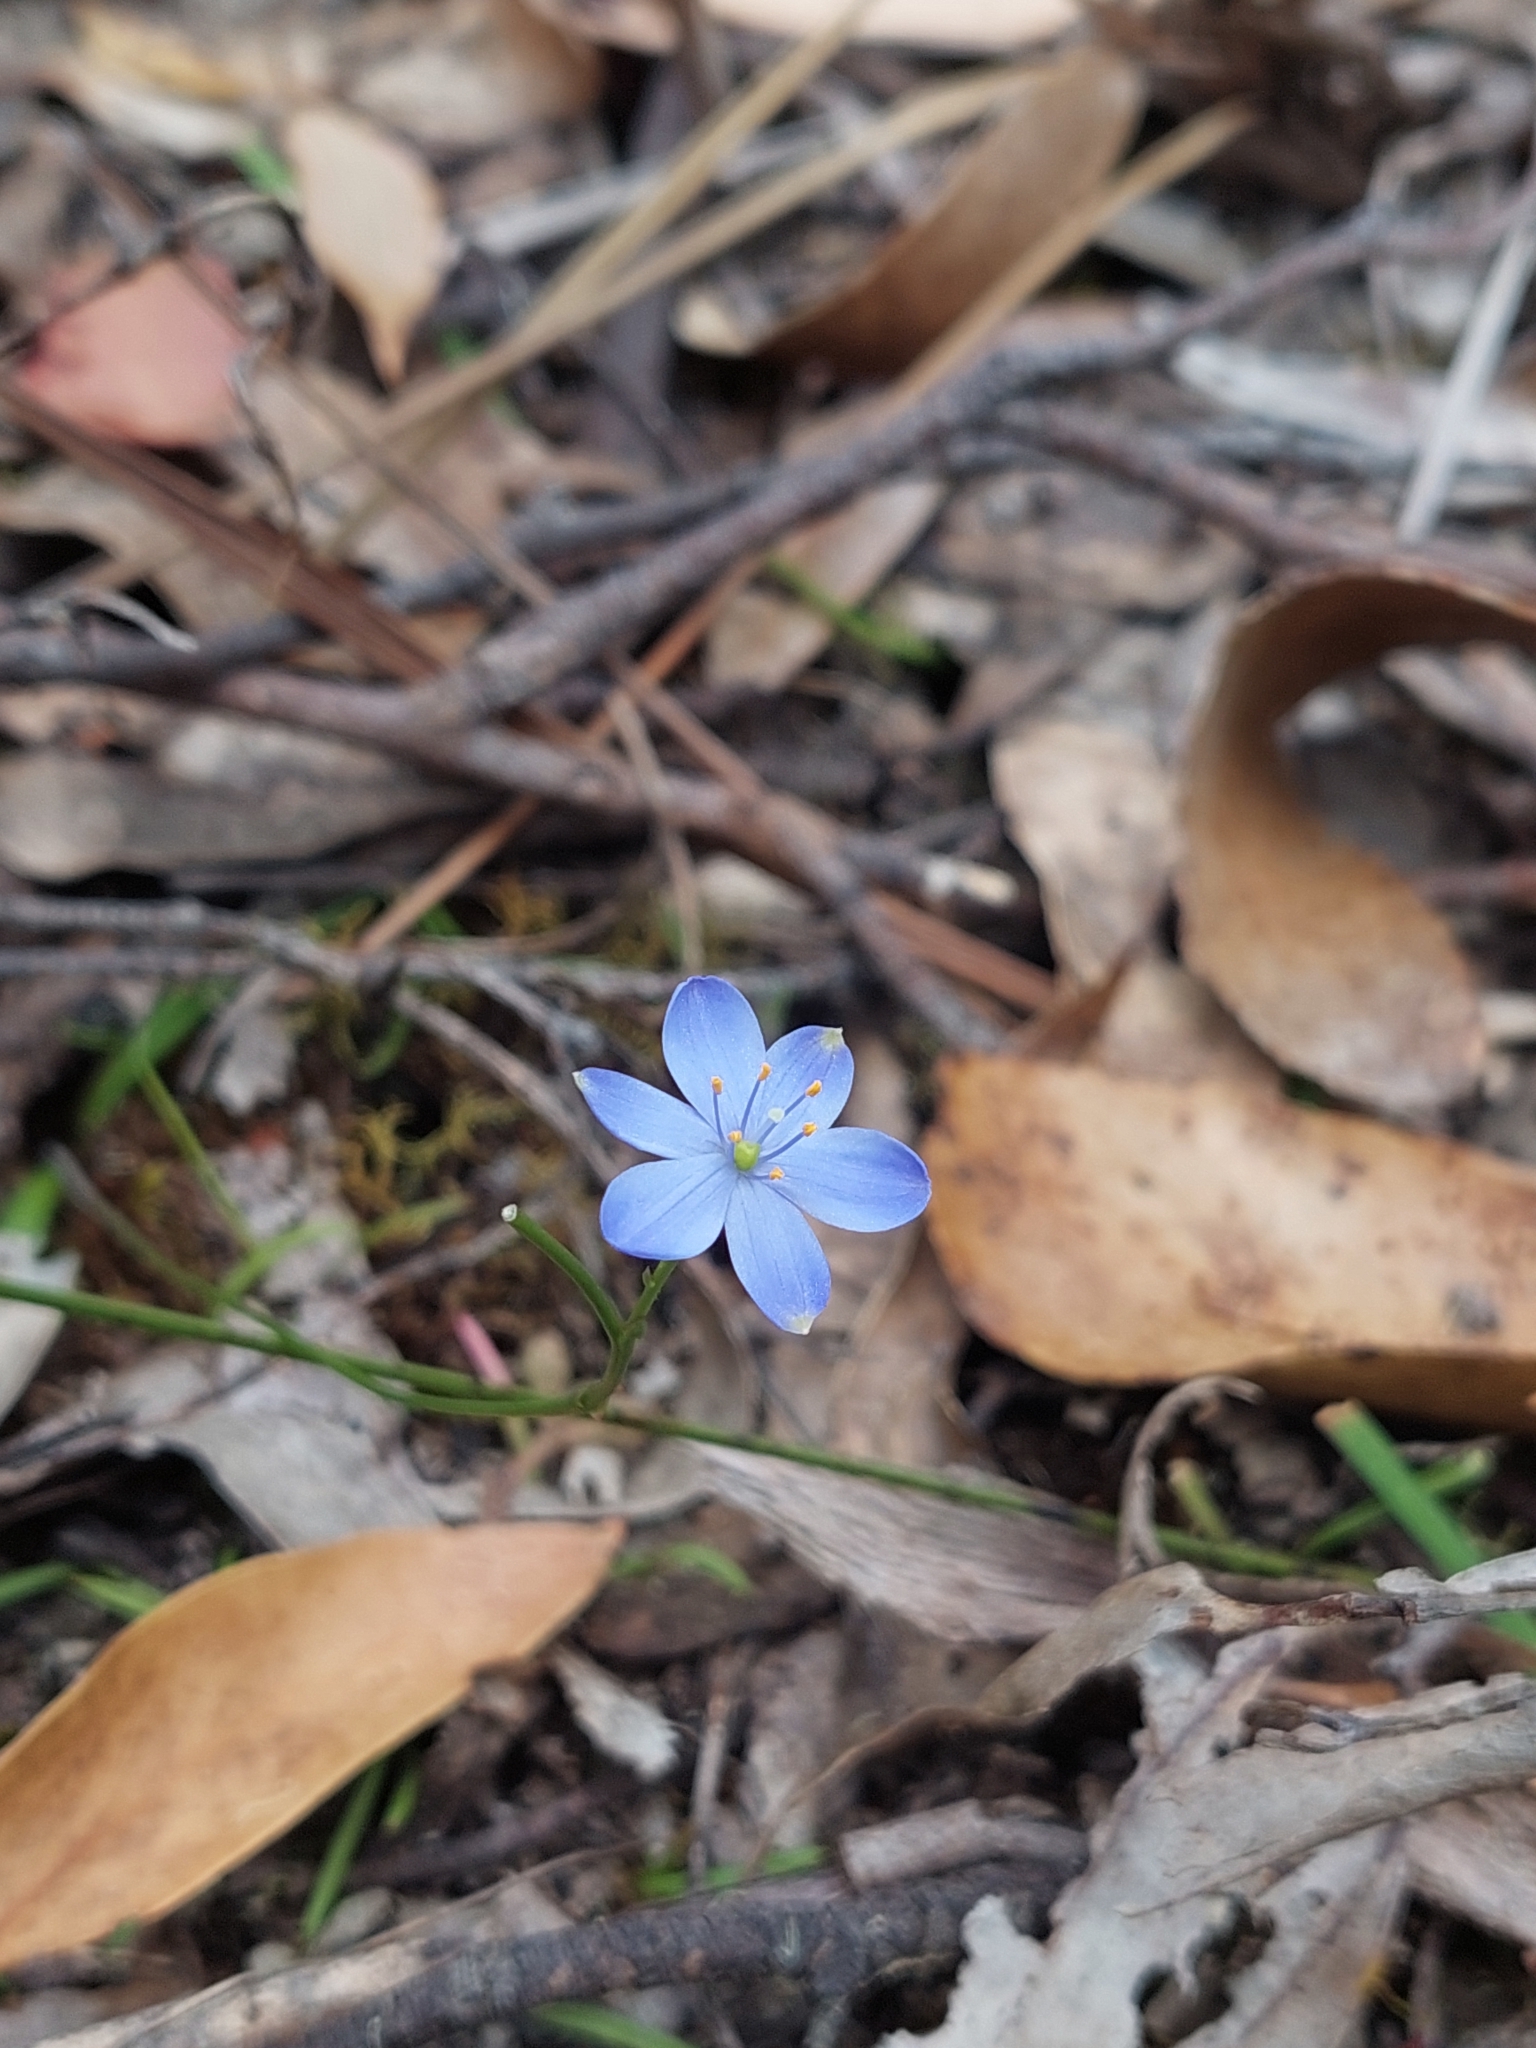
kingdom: Plantae
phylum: Tracheophyta
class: Liliopsida
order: Asparagales
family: Asphodelaceae
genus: Chamaescilla
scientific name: Chamaescilla corymbosa
